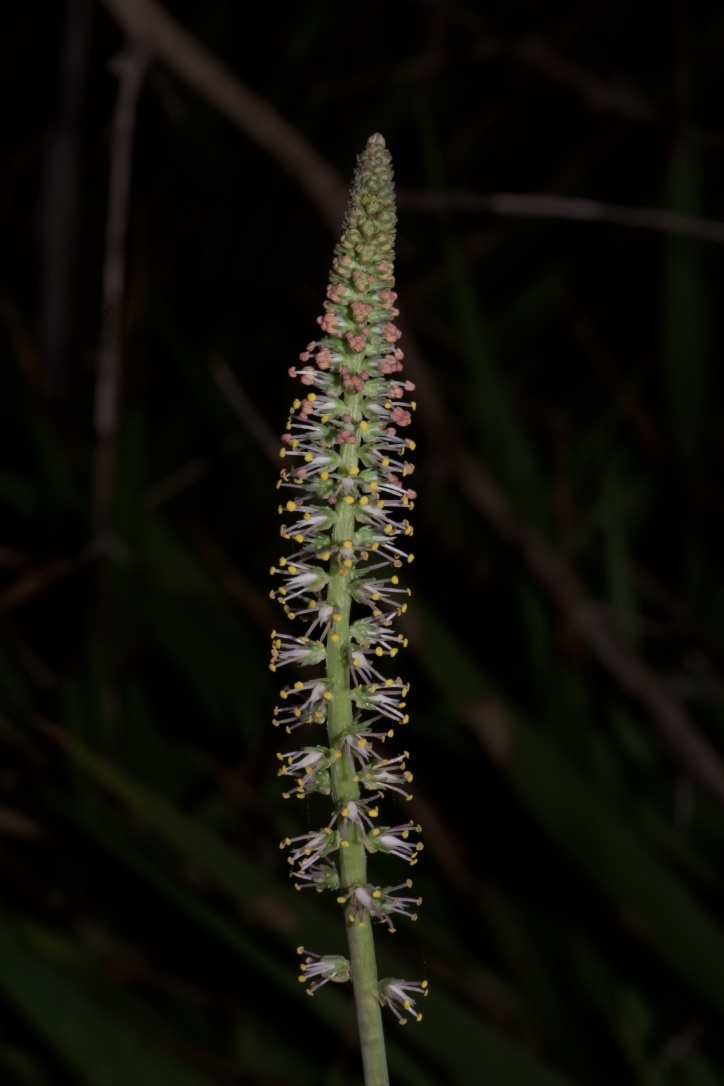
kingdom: Plantae
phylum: Tracheophyta
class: Liliopsida
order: Liliales
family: Melanthiaceae
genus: Schoenocaulon
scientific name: Schoenocaulon texanum
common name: Texas feather-shank
